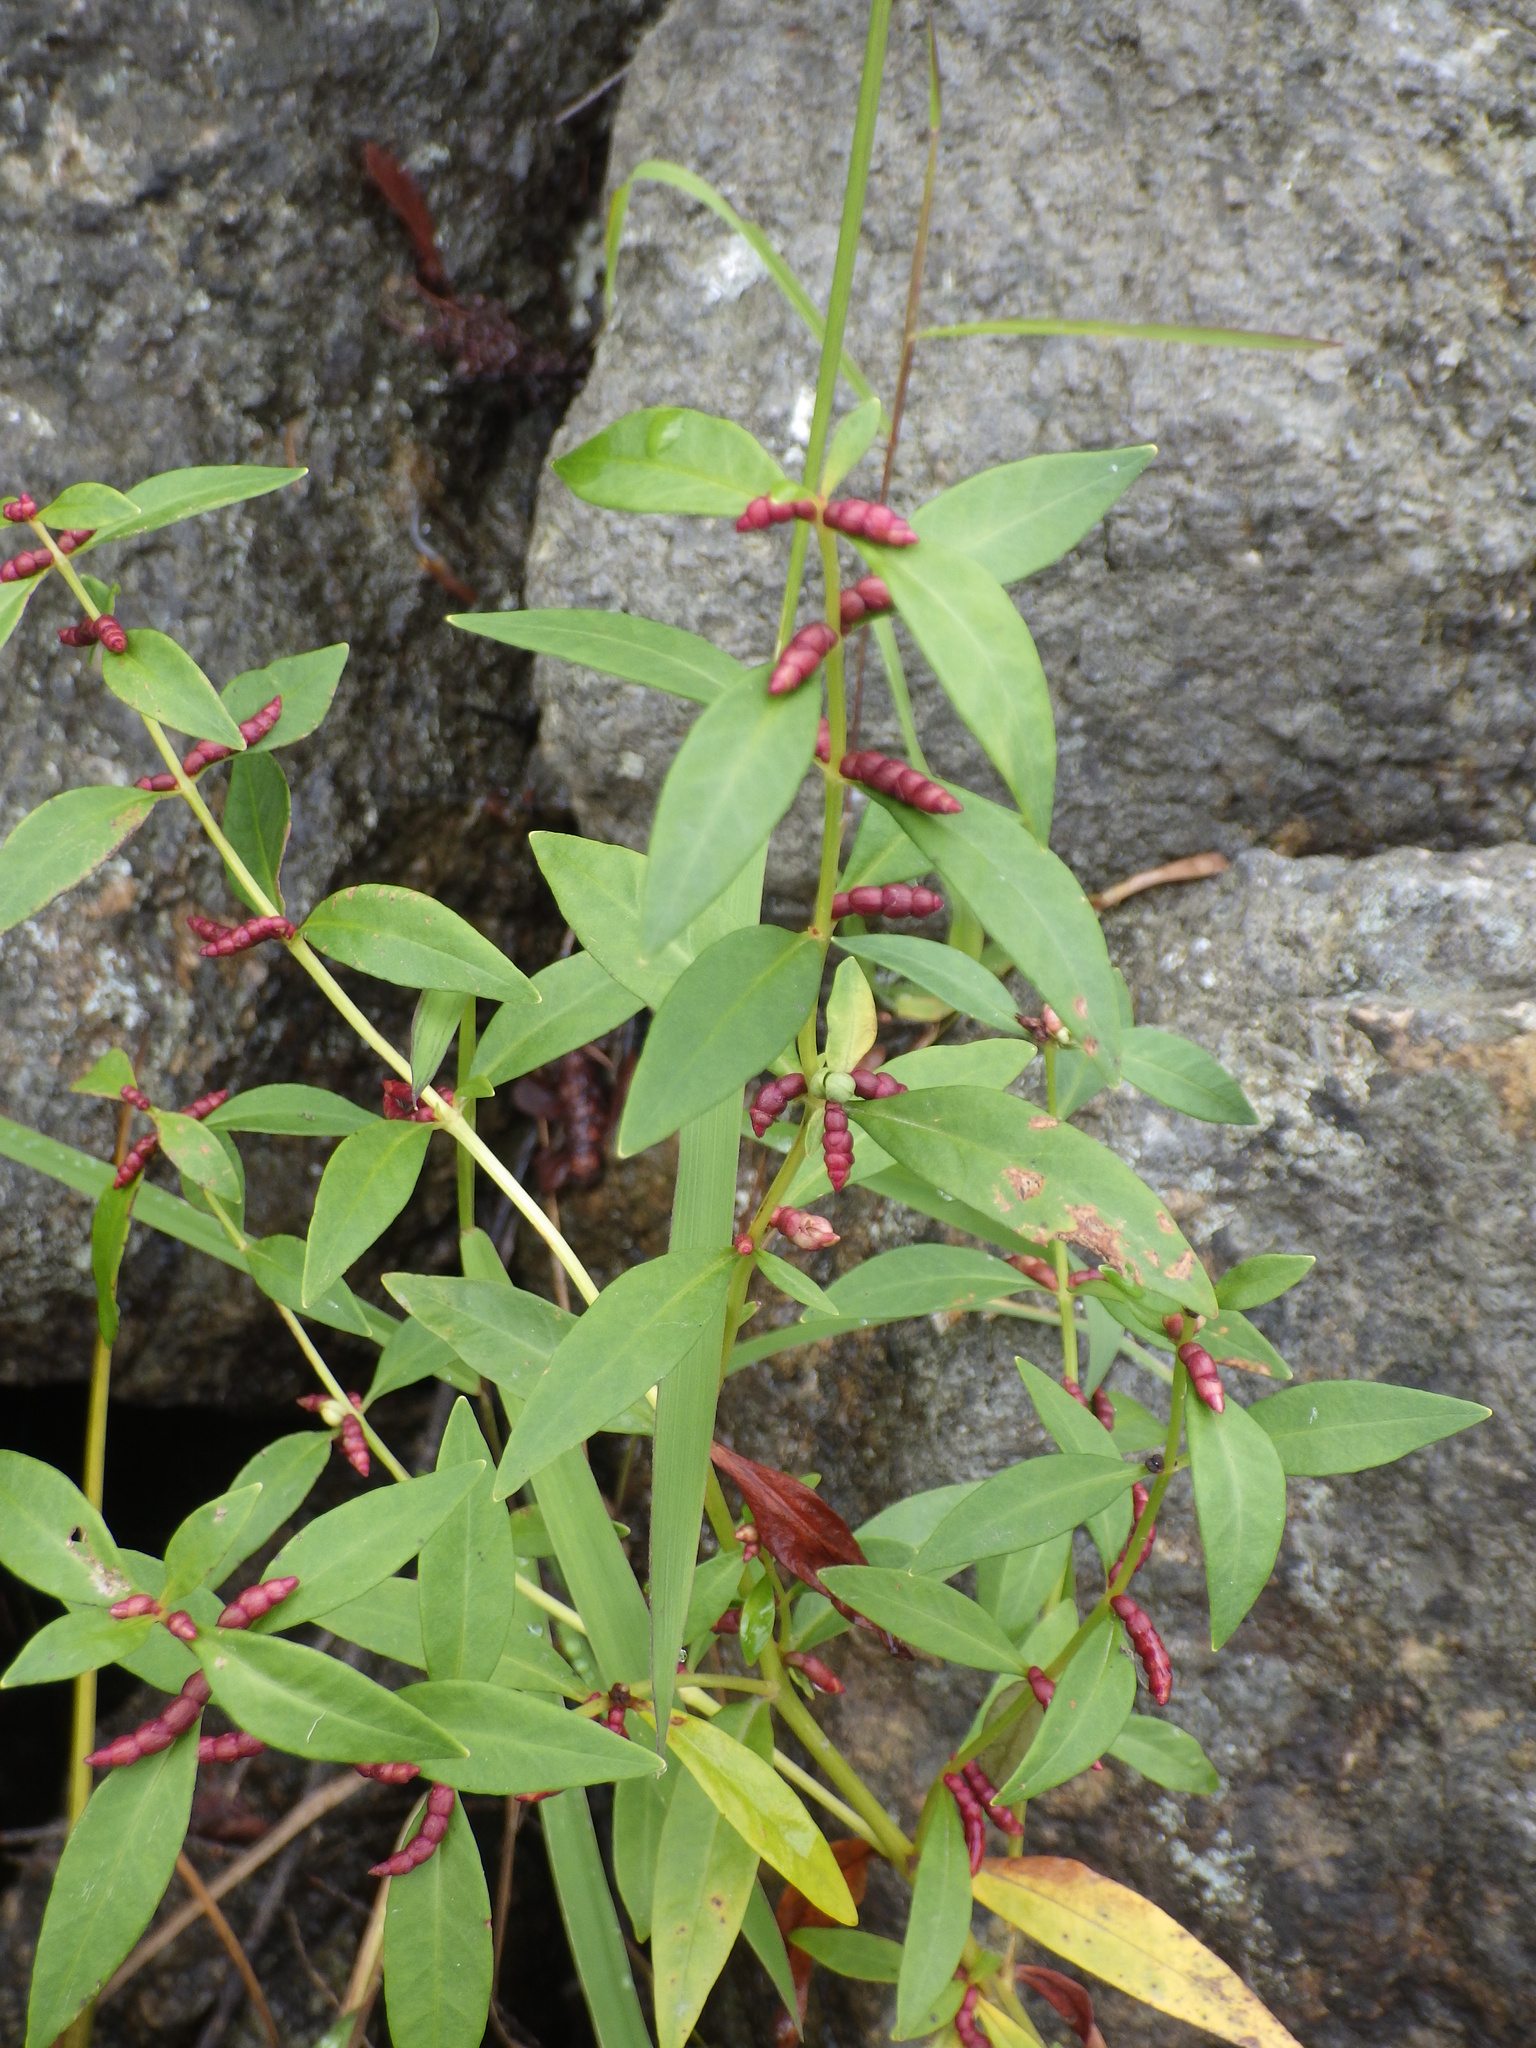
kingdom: Plantae
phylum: Tracheophyta
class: Magnoliopsida
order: Ericales
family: Primulaceae
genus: Lysimachia
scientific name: Lysimachia terrestris
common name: Lake loosestrife
